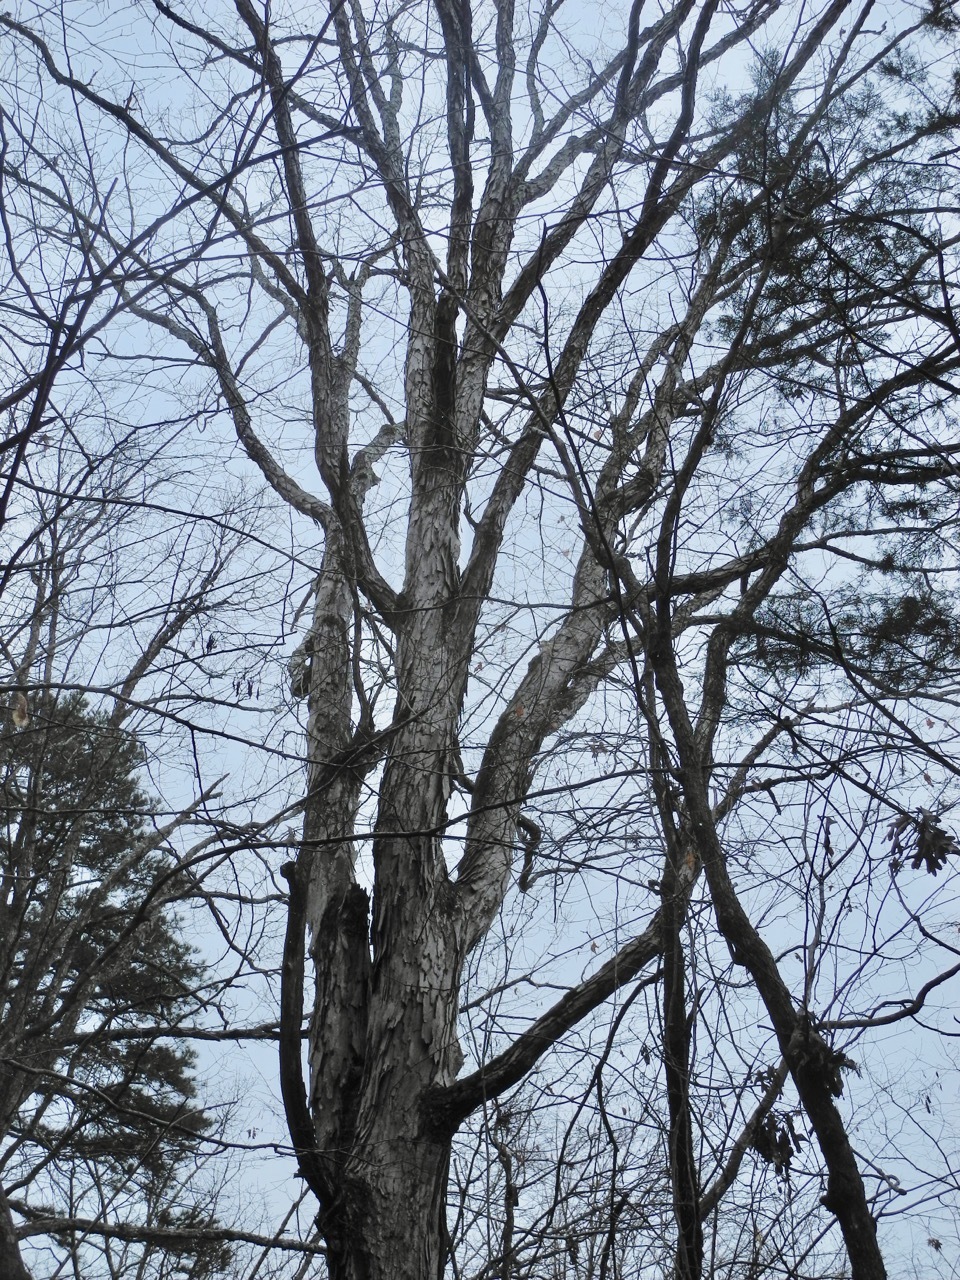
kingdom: Plantae
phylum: Tracheophyta
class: Magnoliopsida
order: Fagales
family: Juglandaceae
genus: Carya
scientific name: Carya ovata
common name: Shagbark hickory
